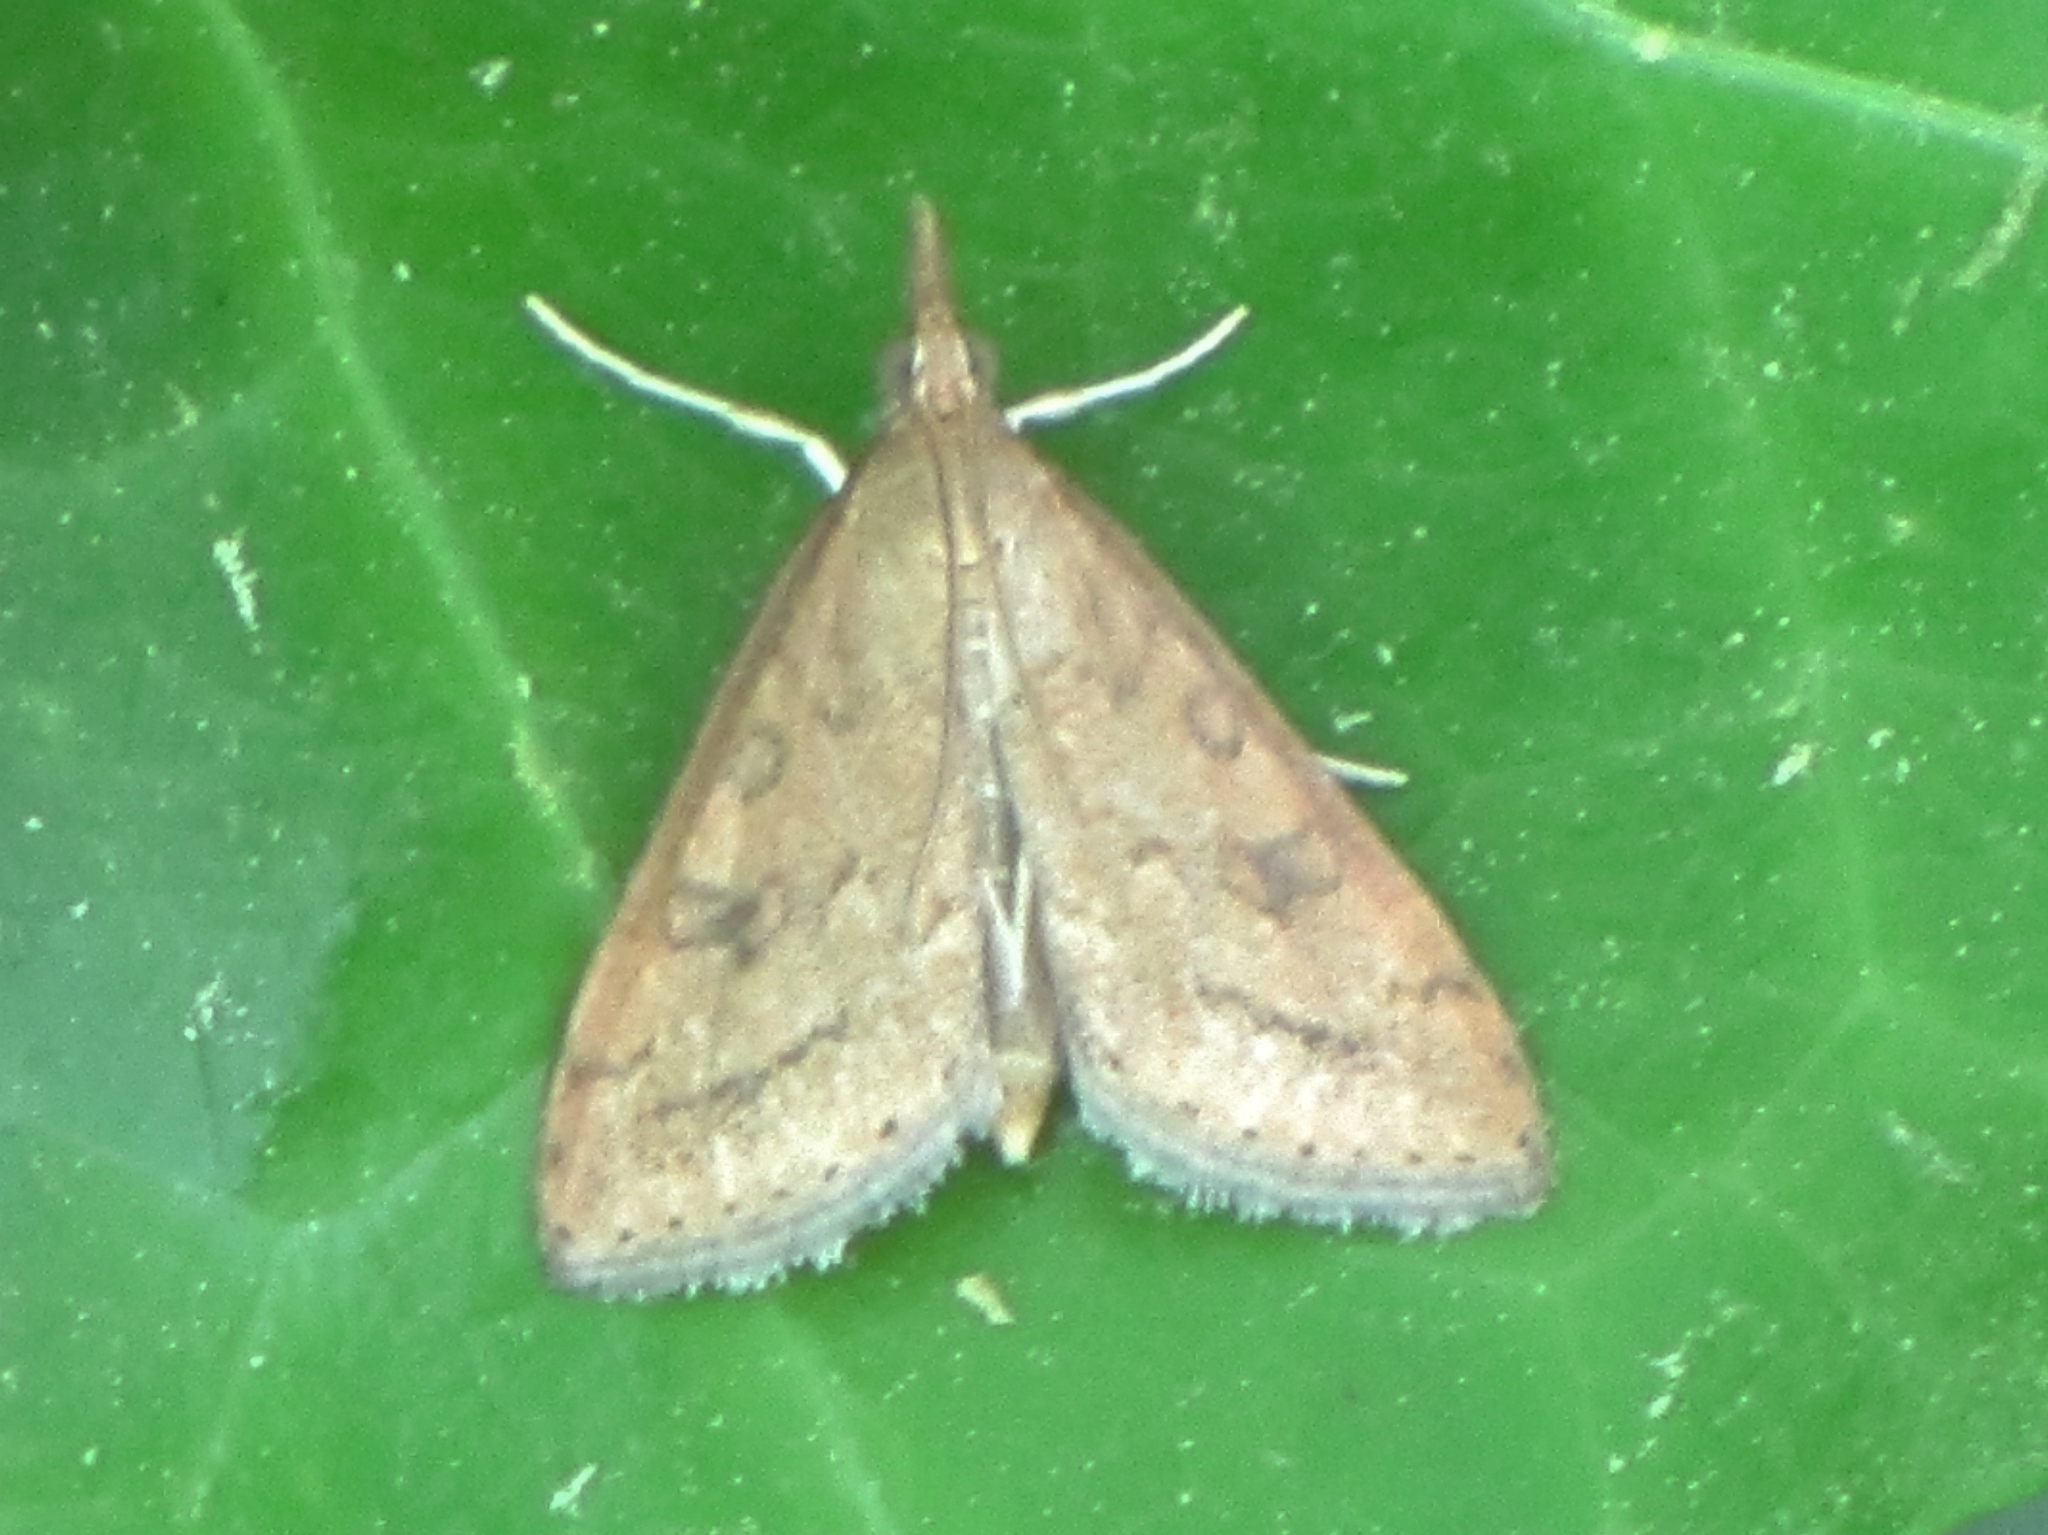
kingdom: Animalia
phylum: Arthropoda
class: Insecta
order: Lepidoptera
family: Crambidae
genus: Udea
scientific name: Udea rubigalis
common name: Celery leaftier moth
